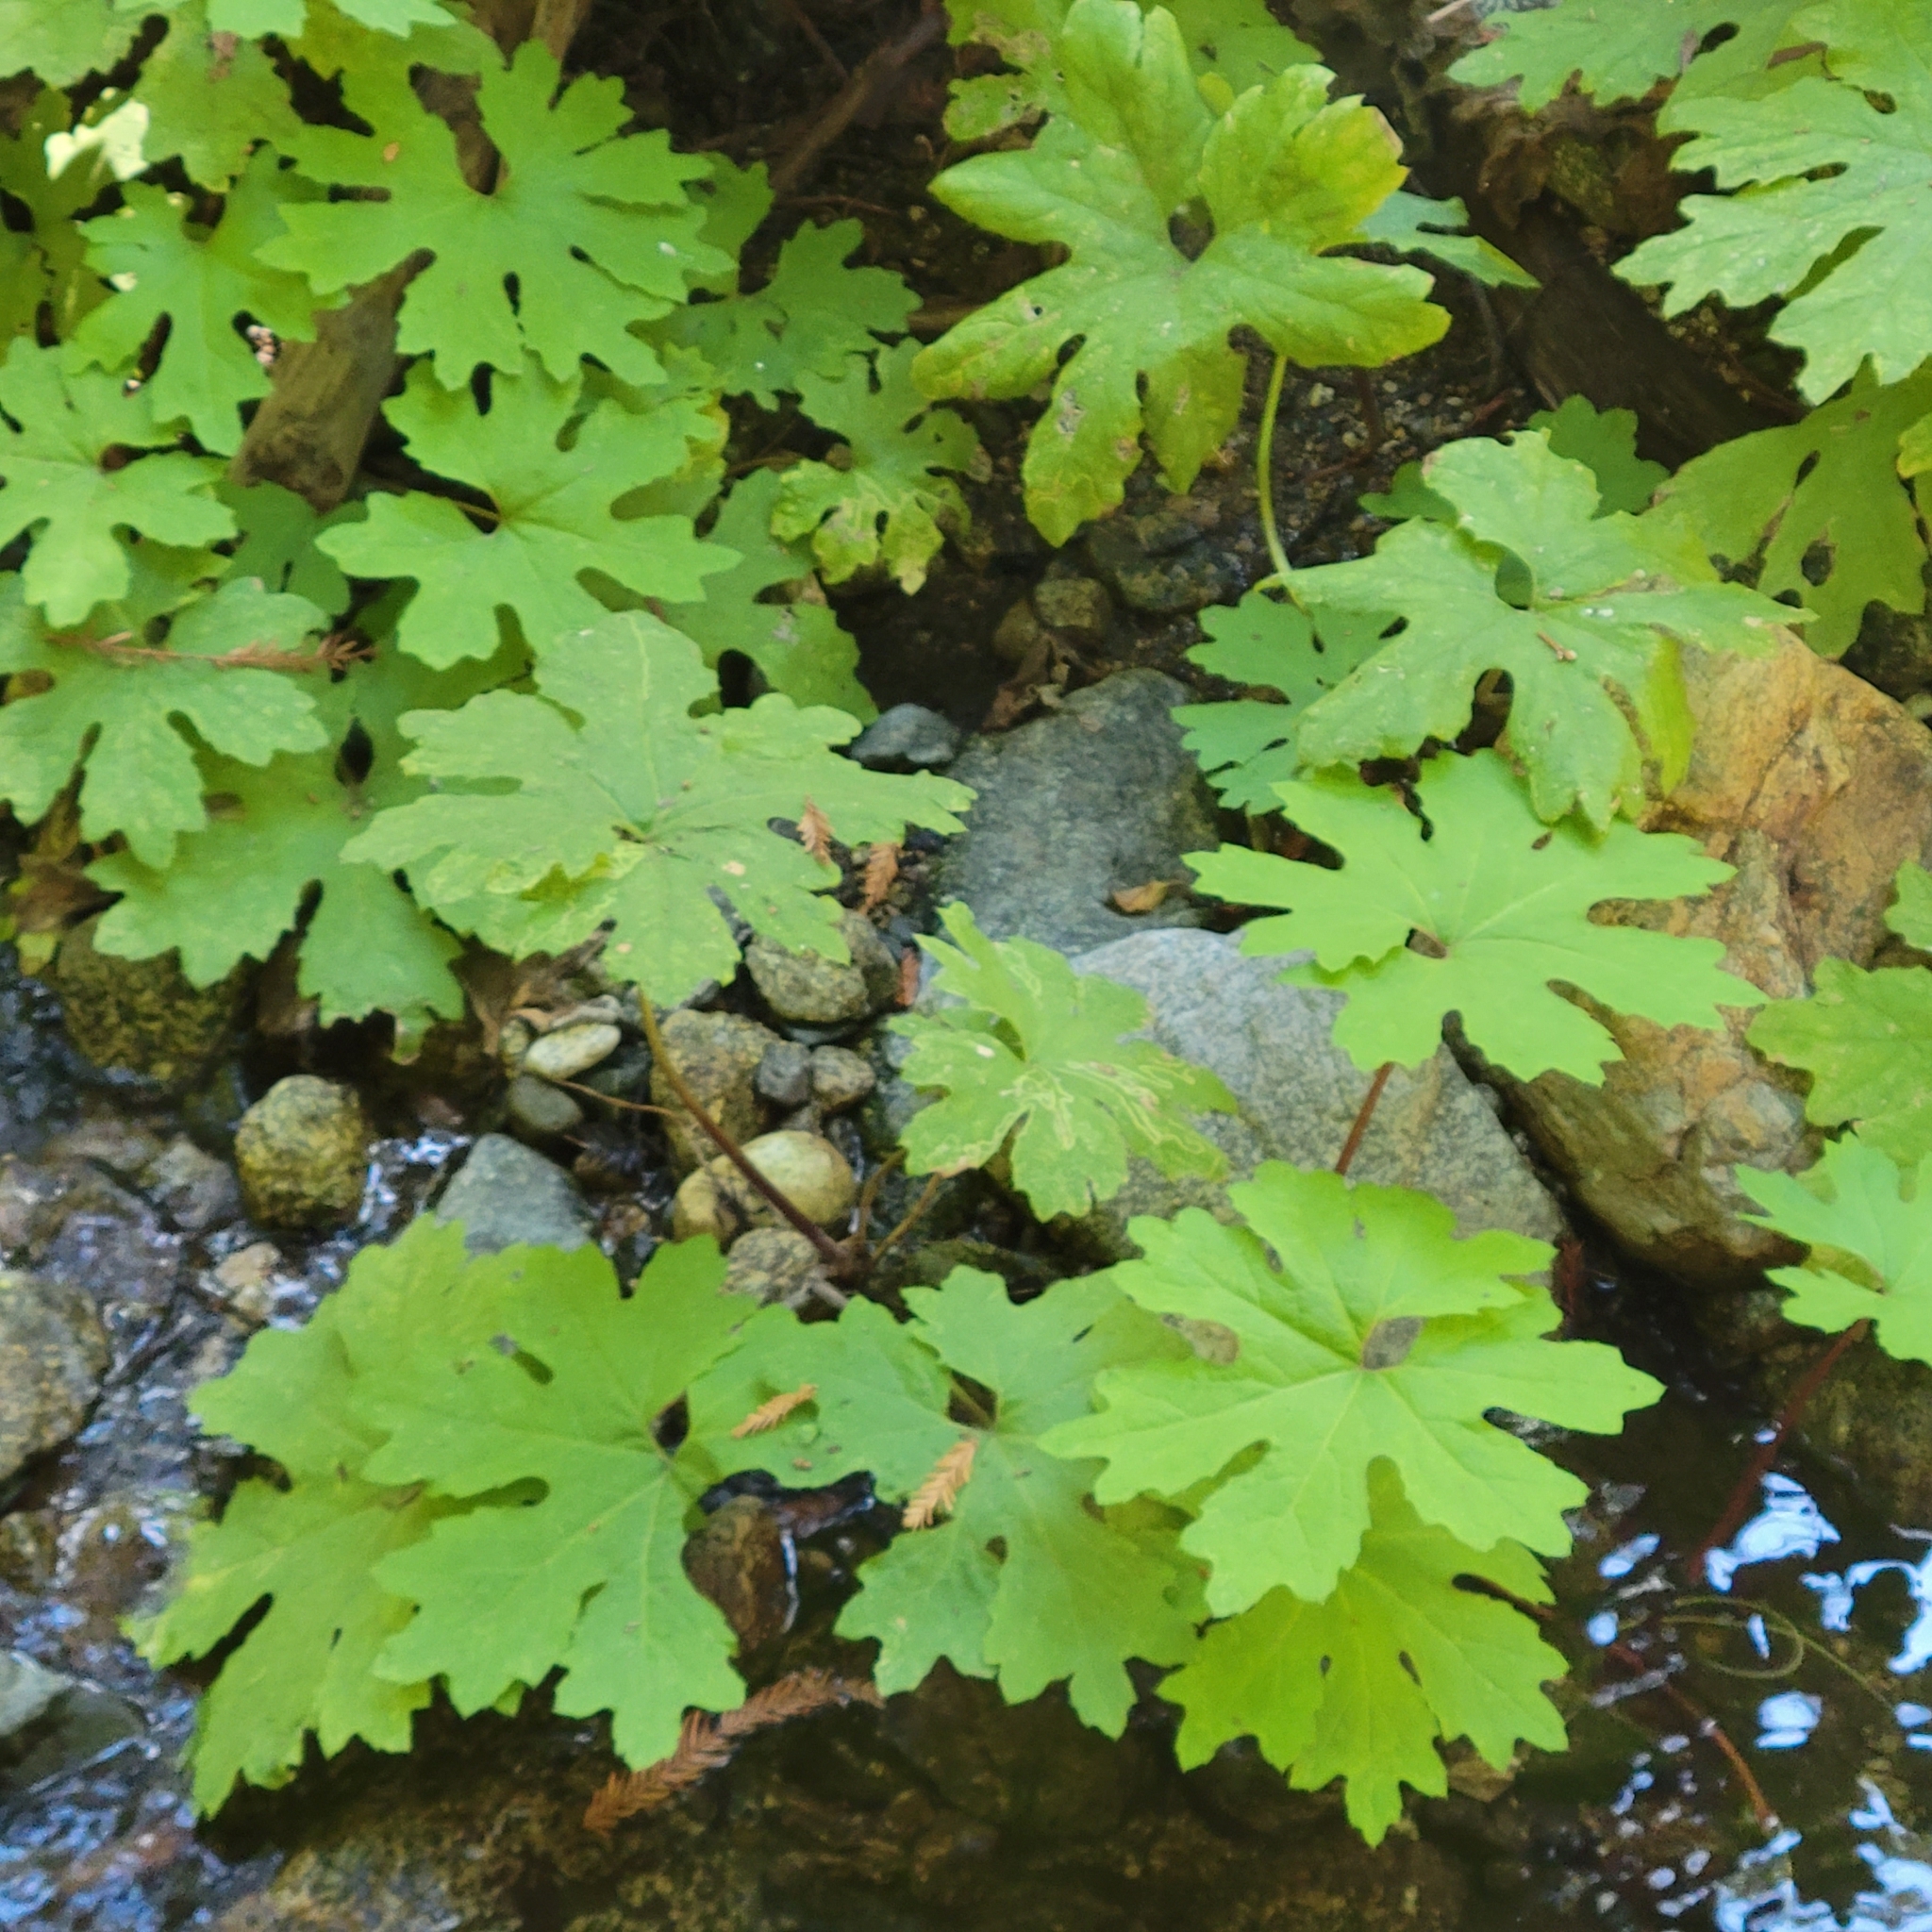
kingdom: Plantae
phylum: Tracheophyta
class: Magnoliopsida
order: Asterales
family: Asteraceae
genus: Petasites
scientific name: Petasites frigidus
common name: Arctic butterbur
